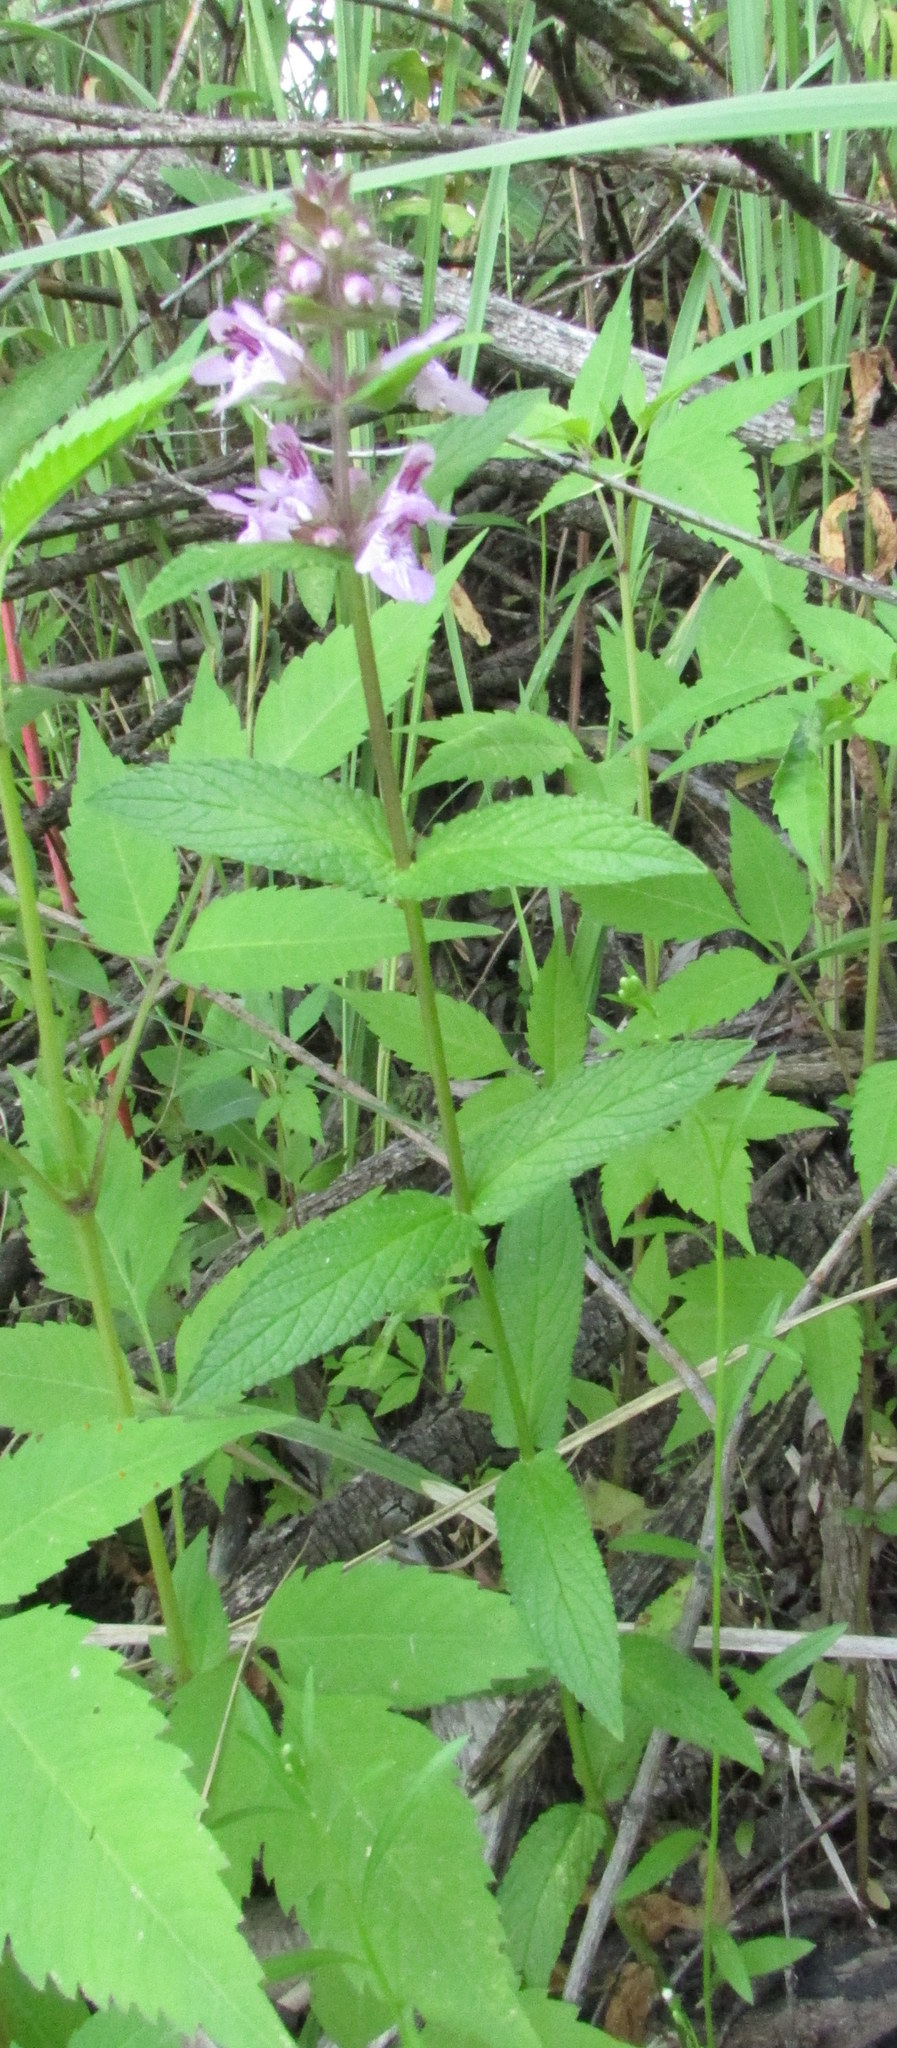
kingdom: Plantae
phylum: Tracheophyta
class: Magnoliopsida
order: Lamiales
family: Lamiaceae
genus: Stachys
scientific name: Stachys palustris
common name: Marsh woundwort
